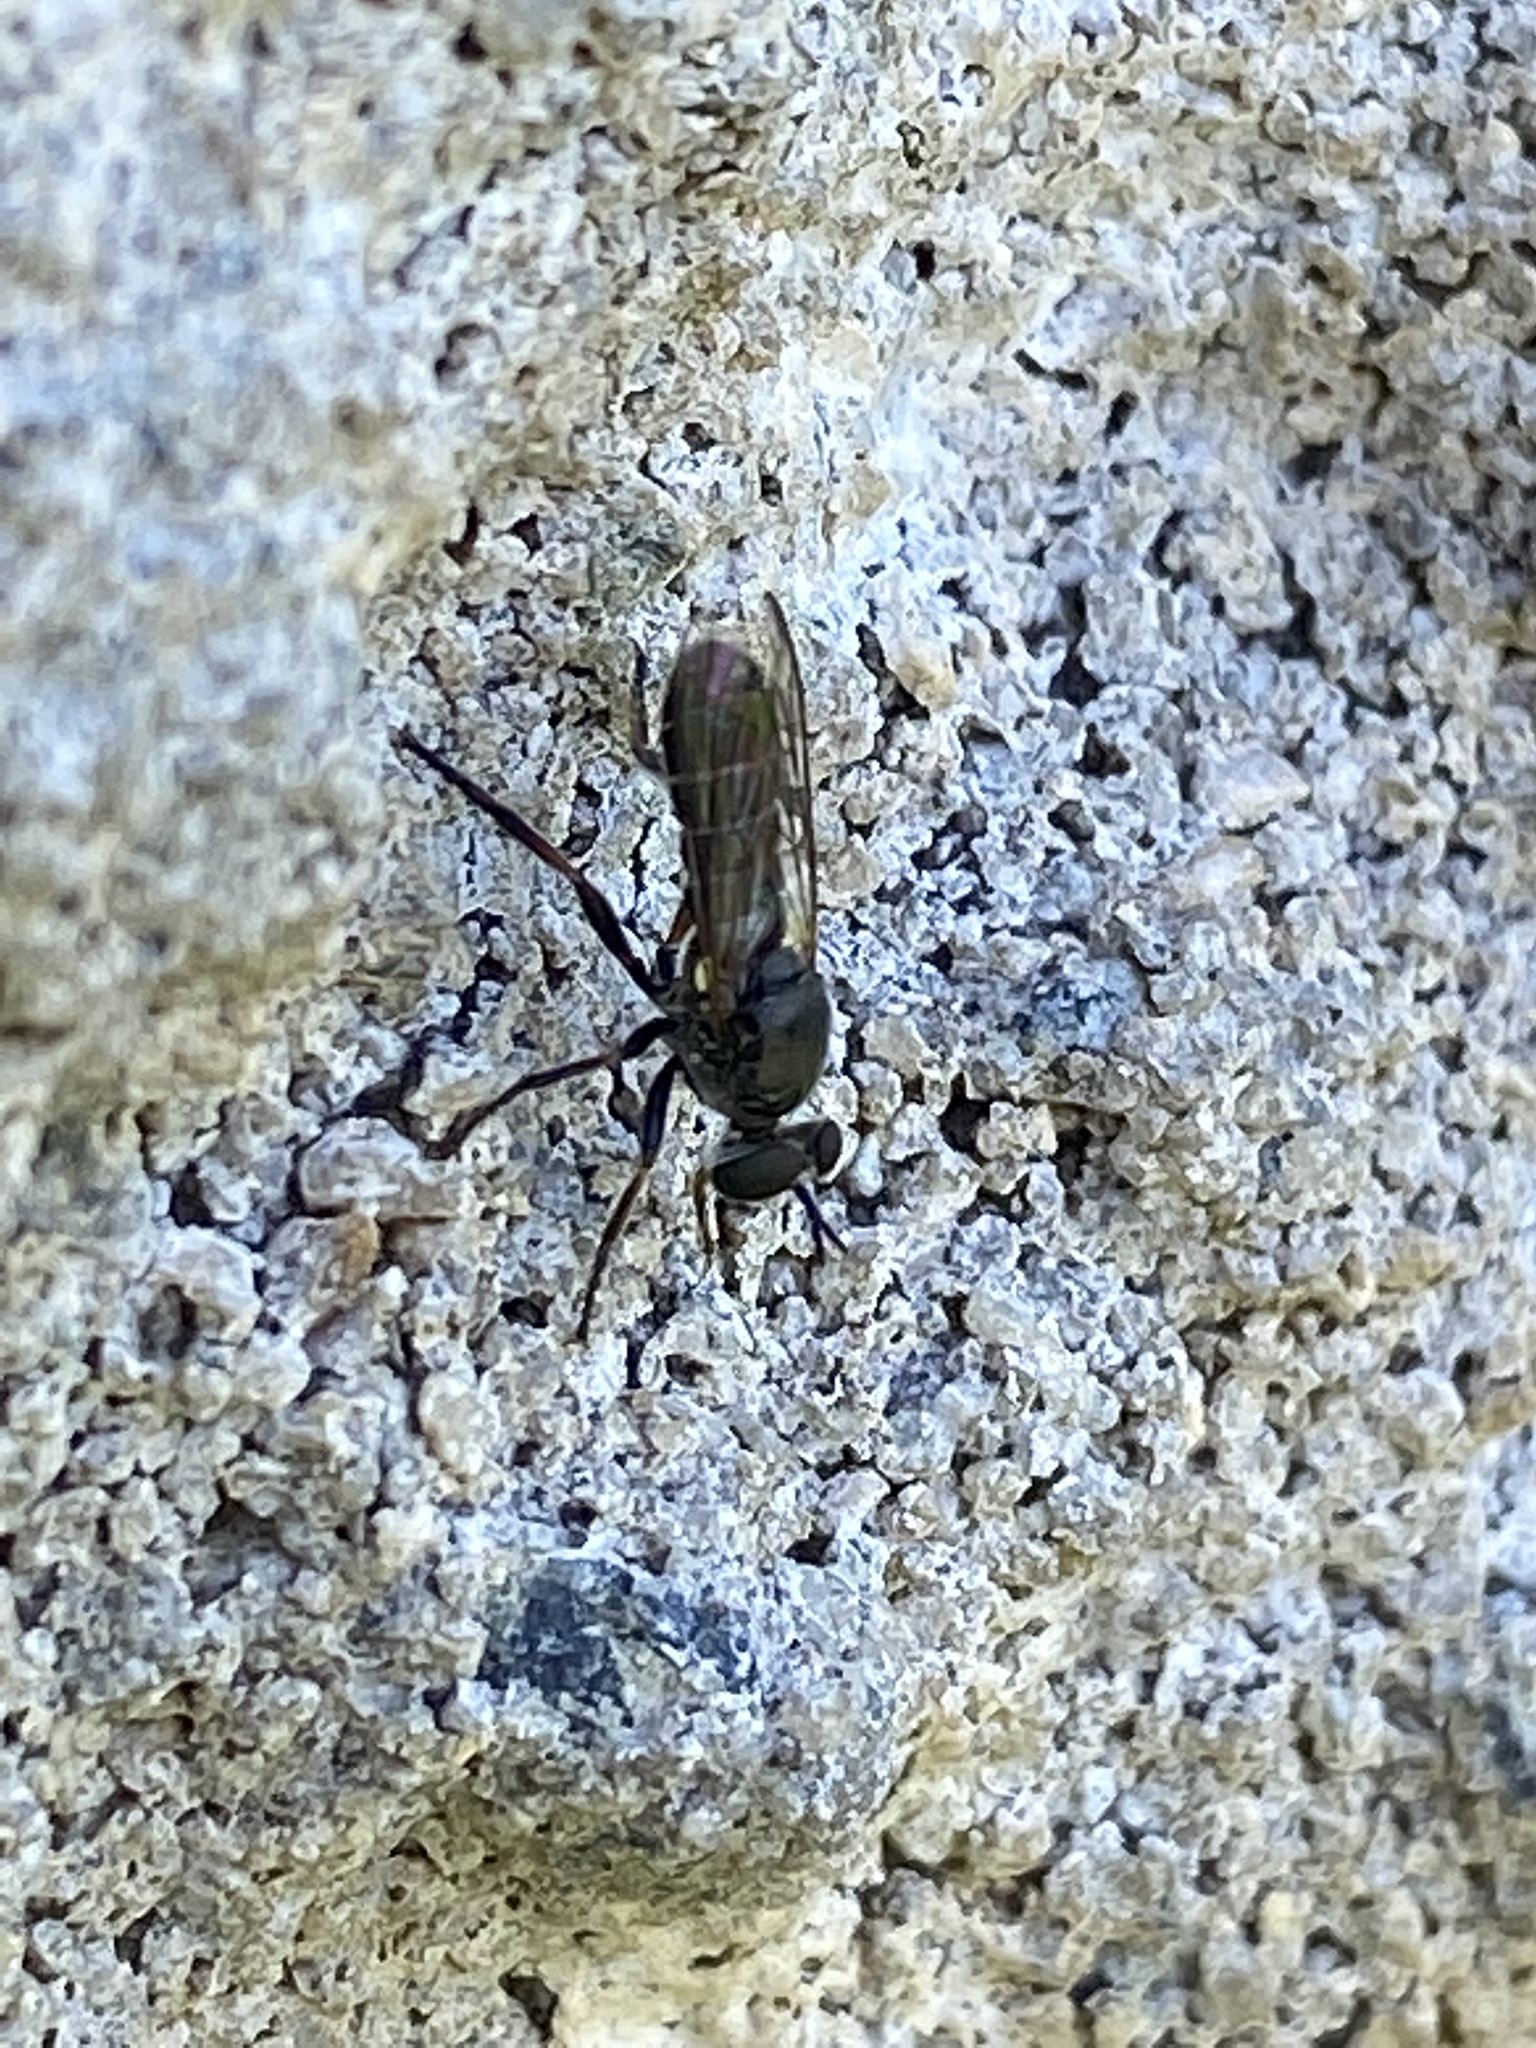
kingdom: Animalia
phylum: Arthropoda
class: Insecta
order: Diptera
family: Asilidae
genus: Atomosia
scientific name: Atomosia puella
